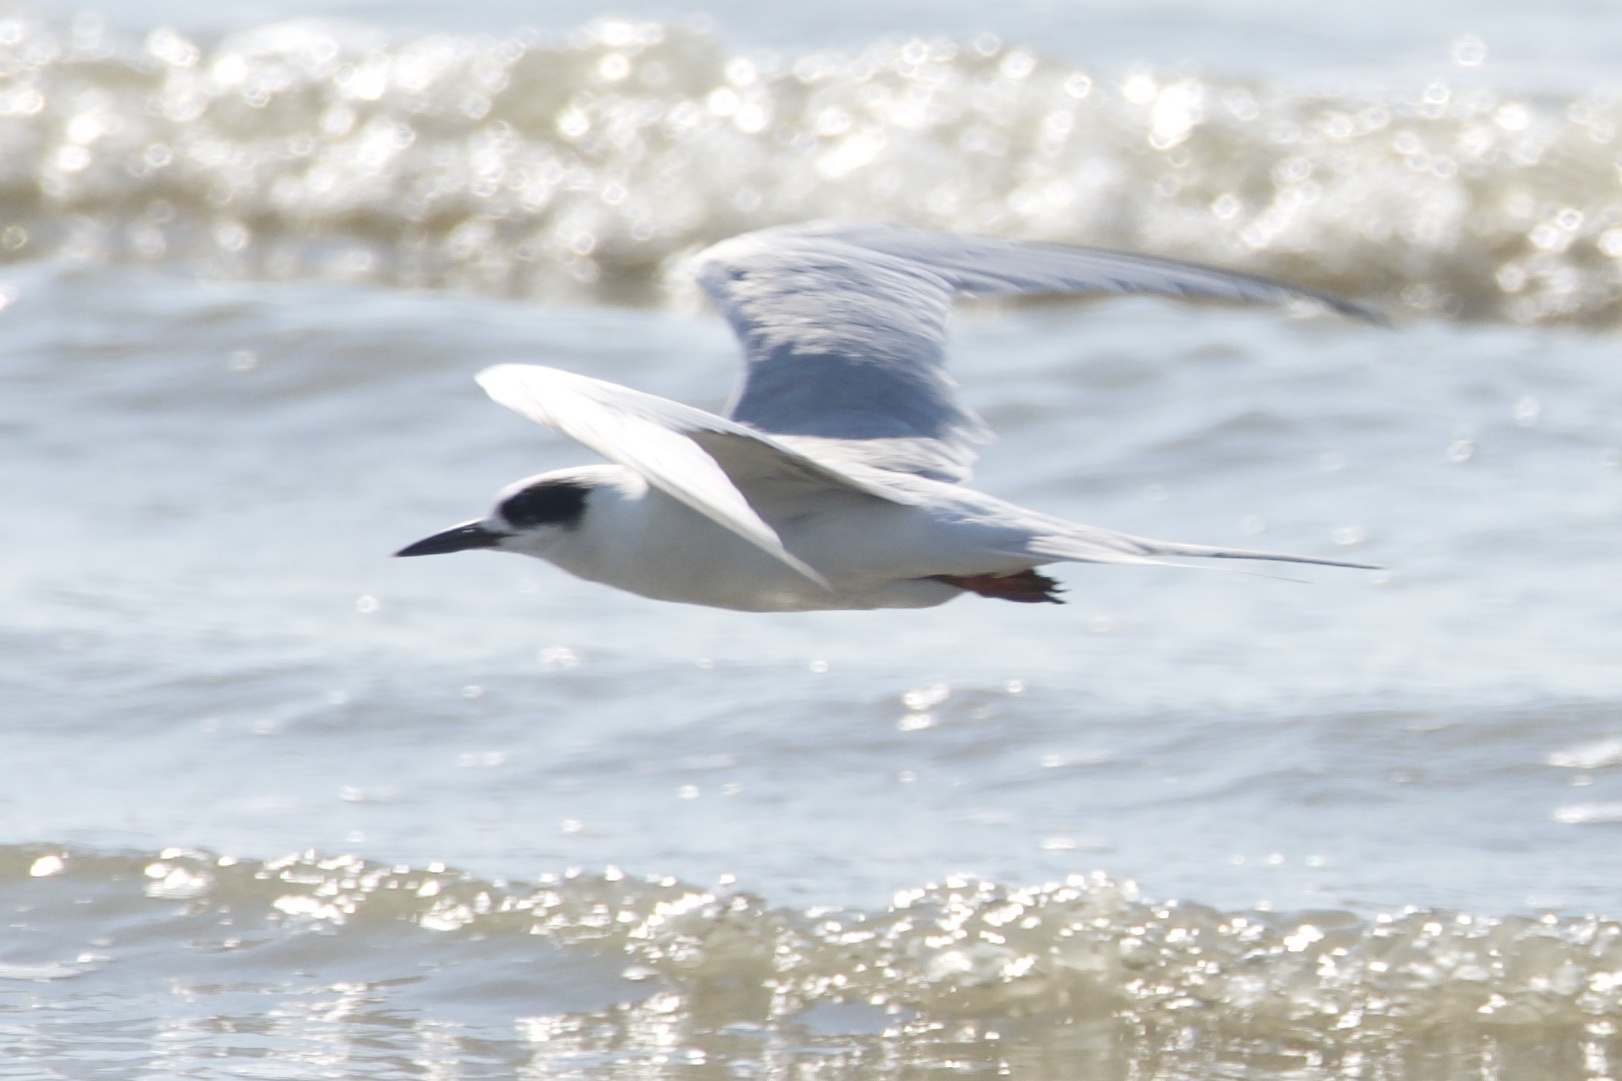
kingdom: Animalia
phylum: Chordata
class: Aves
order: Charadriiformes
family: Laridae
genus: Sterna
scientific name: Sterna forsteri
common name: Forster's tern
